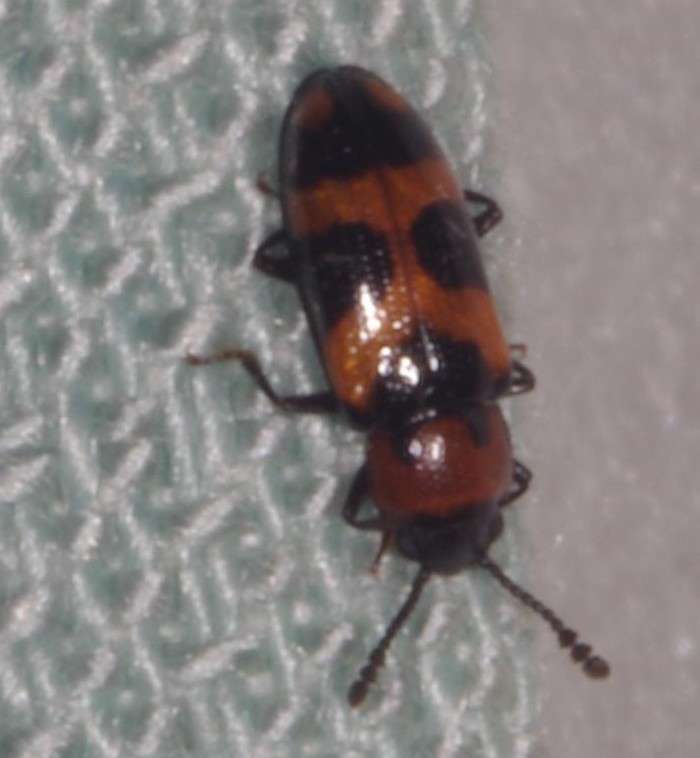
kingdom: Animalia
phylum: Arthropoda
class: Insecta
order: Coleoptera
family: Erotylidae
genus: Thallis
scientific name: Thallis
